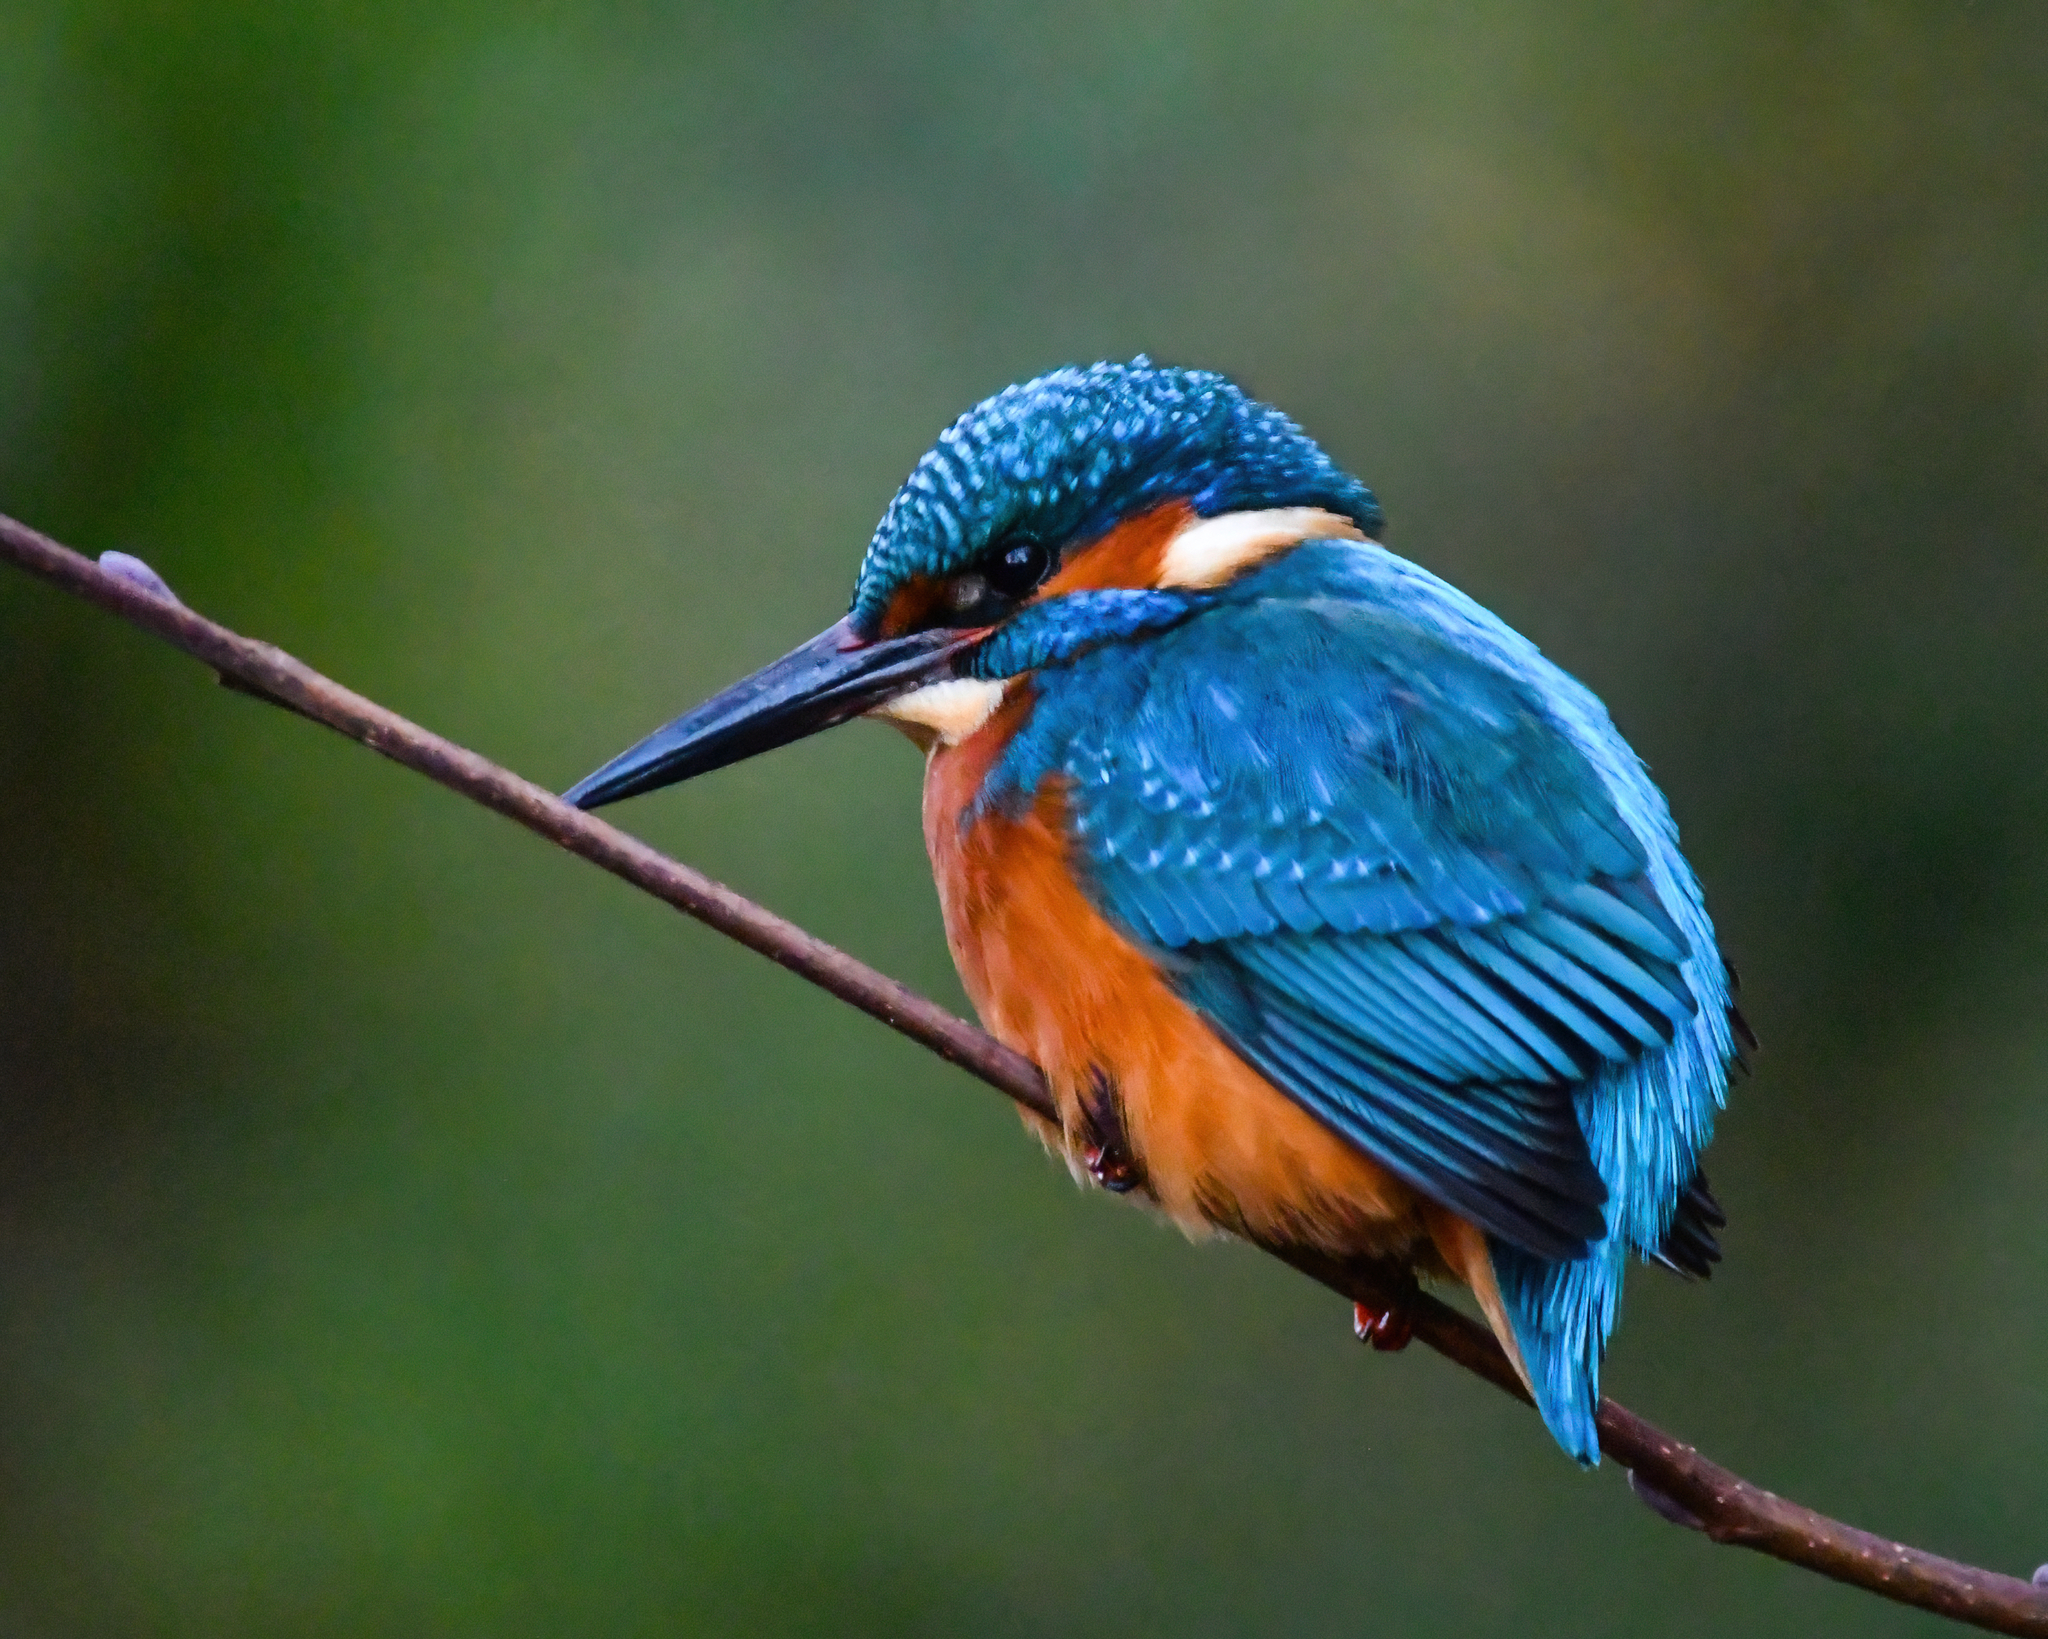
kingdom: Animalia
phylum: Chordata
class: Aves
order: Coraciiformes
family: Alcedinidae
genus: Alcedo
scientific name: Alcedo atthis
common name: Common kingfisher
